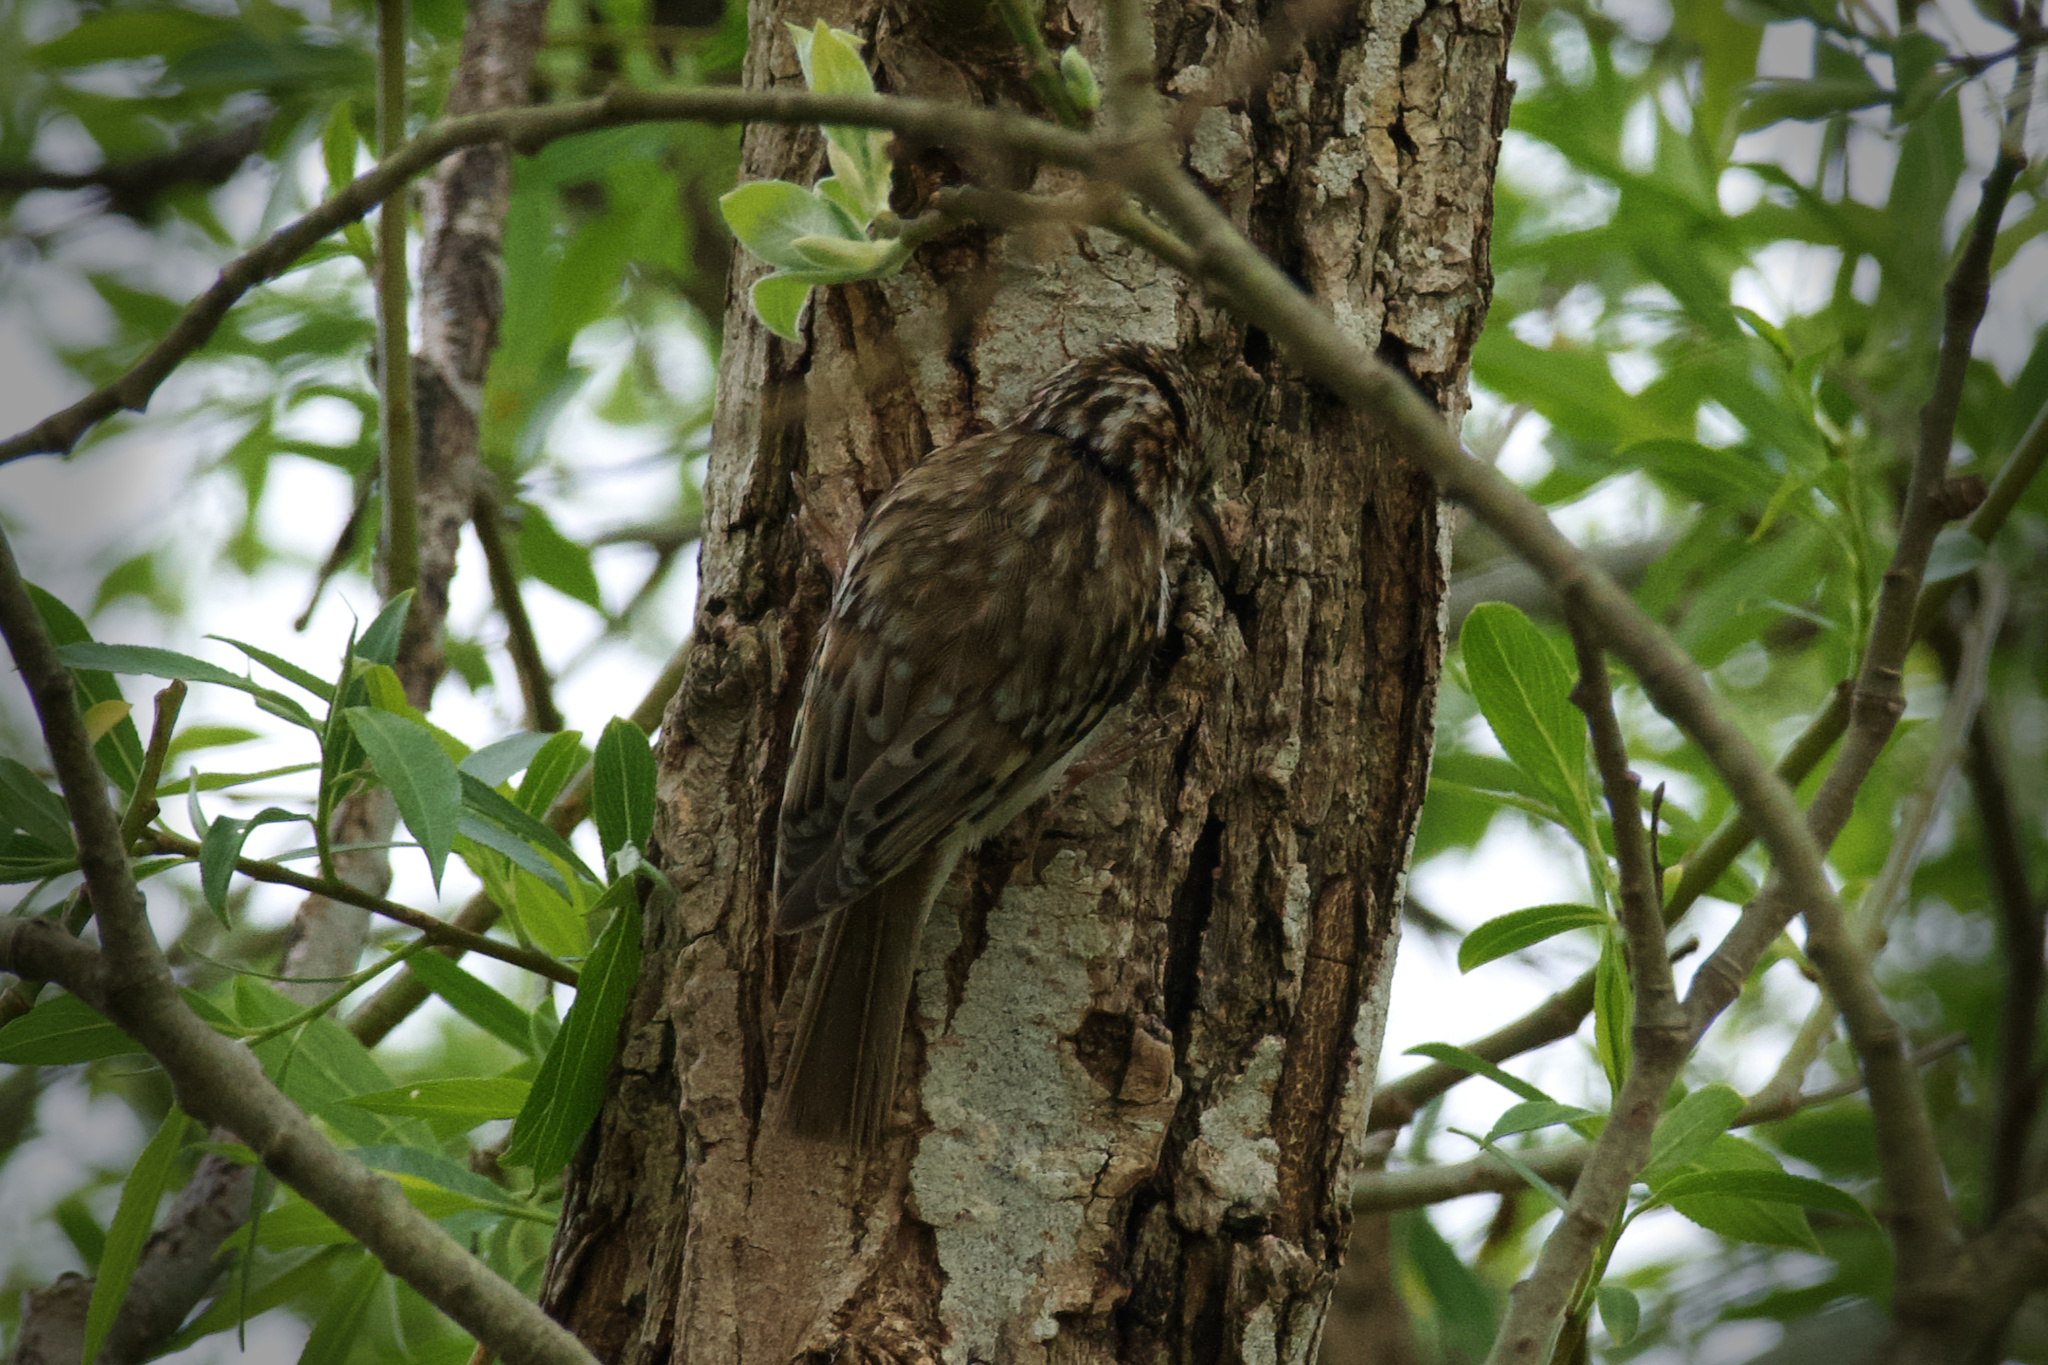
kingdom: Animalia
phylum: Chordata
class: Aves
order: Passeriformes
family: Certhiidae
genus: Certhia
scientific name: Certhia familiaris
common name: Eurasian treecreeper
